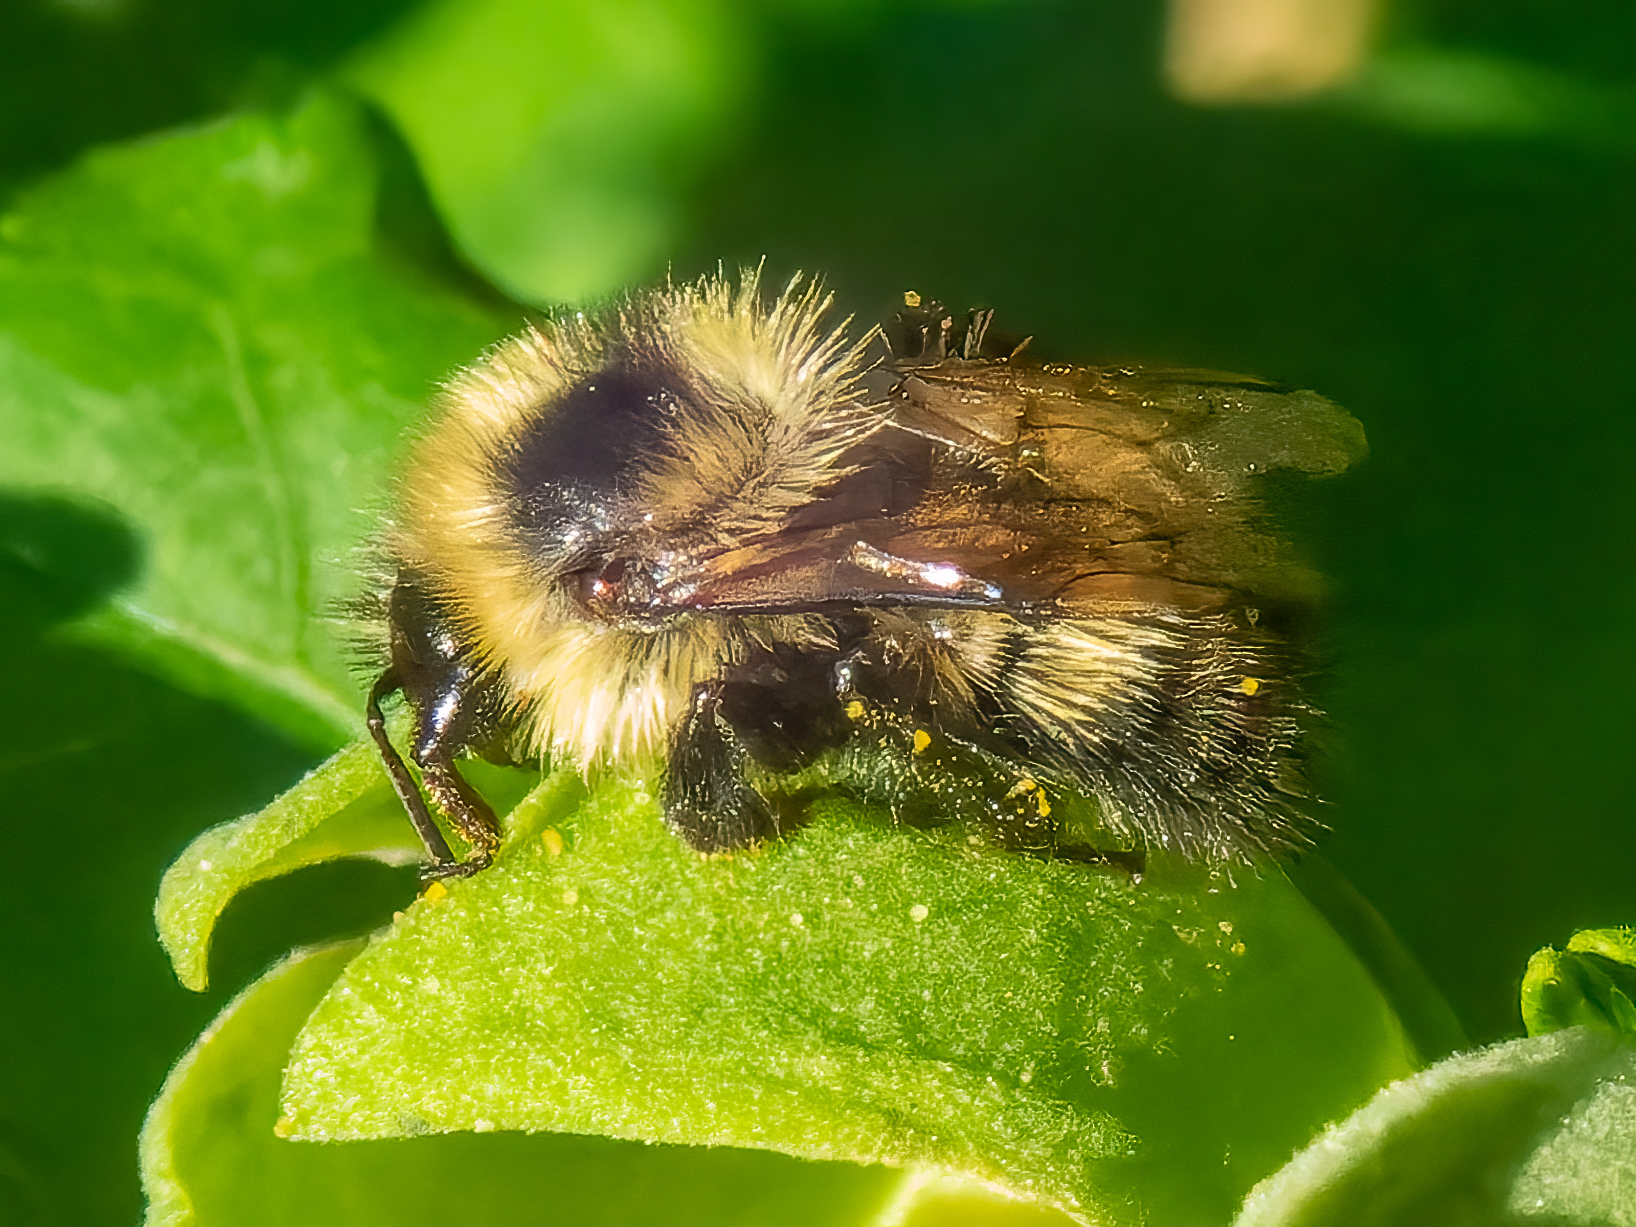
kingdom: Animalia
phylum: Arthropoda
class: Insecta
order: Hymenoptera
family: Apidae
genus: Bombus
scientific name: Bombus rufocinctus
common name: Red-belted bumble bee
